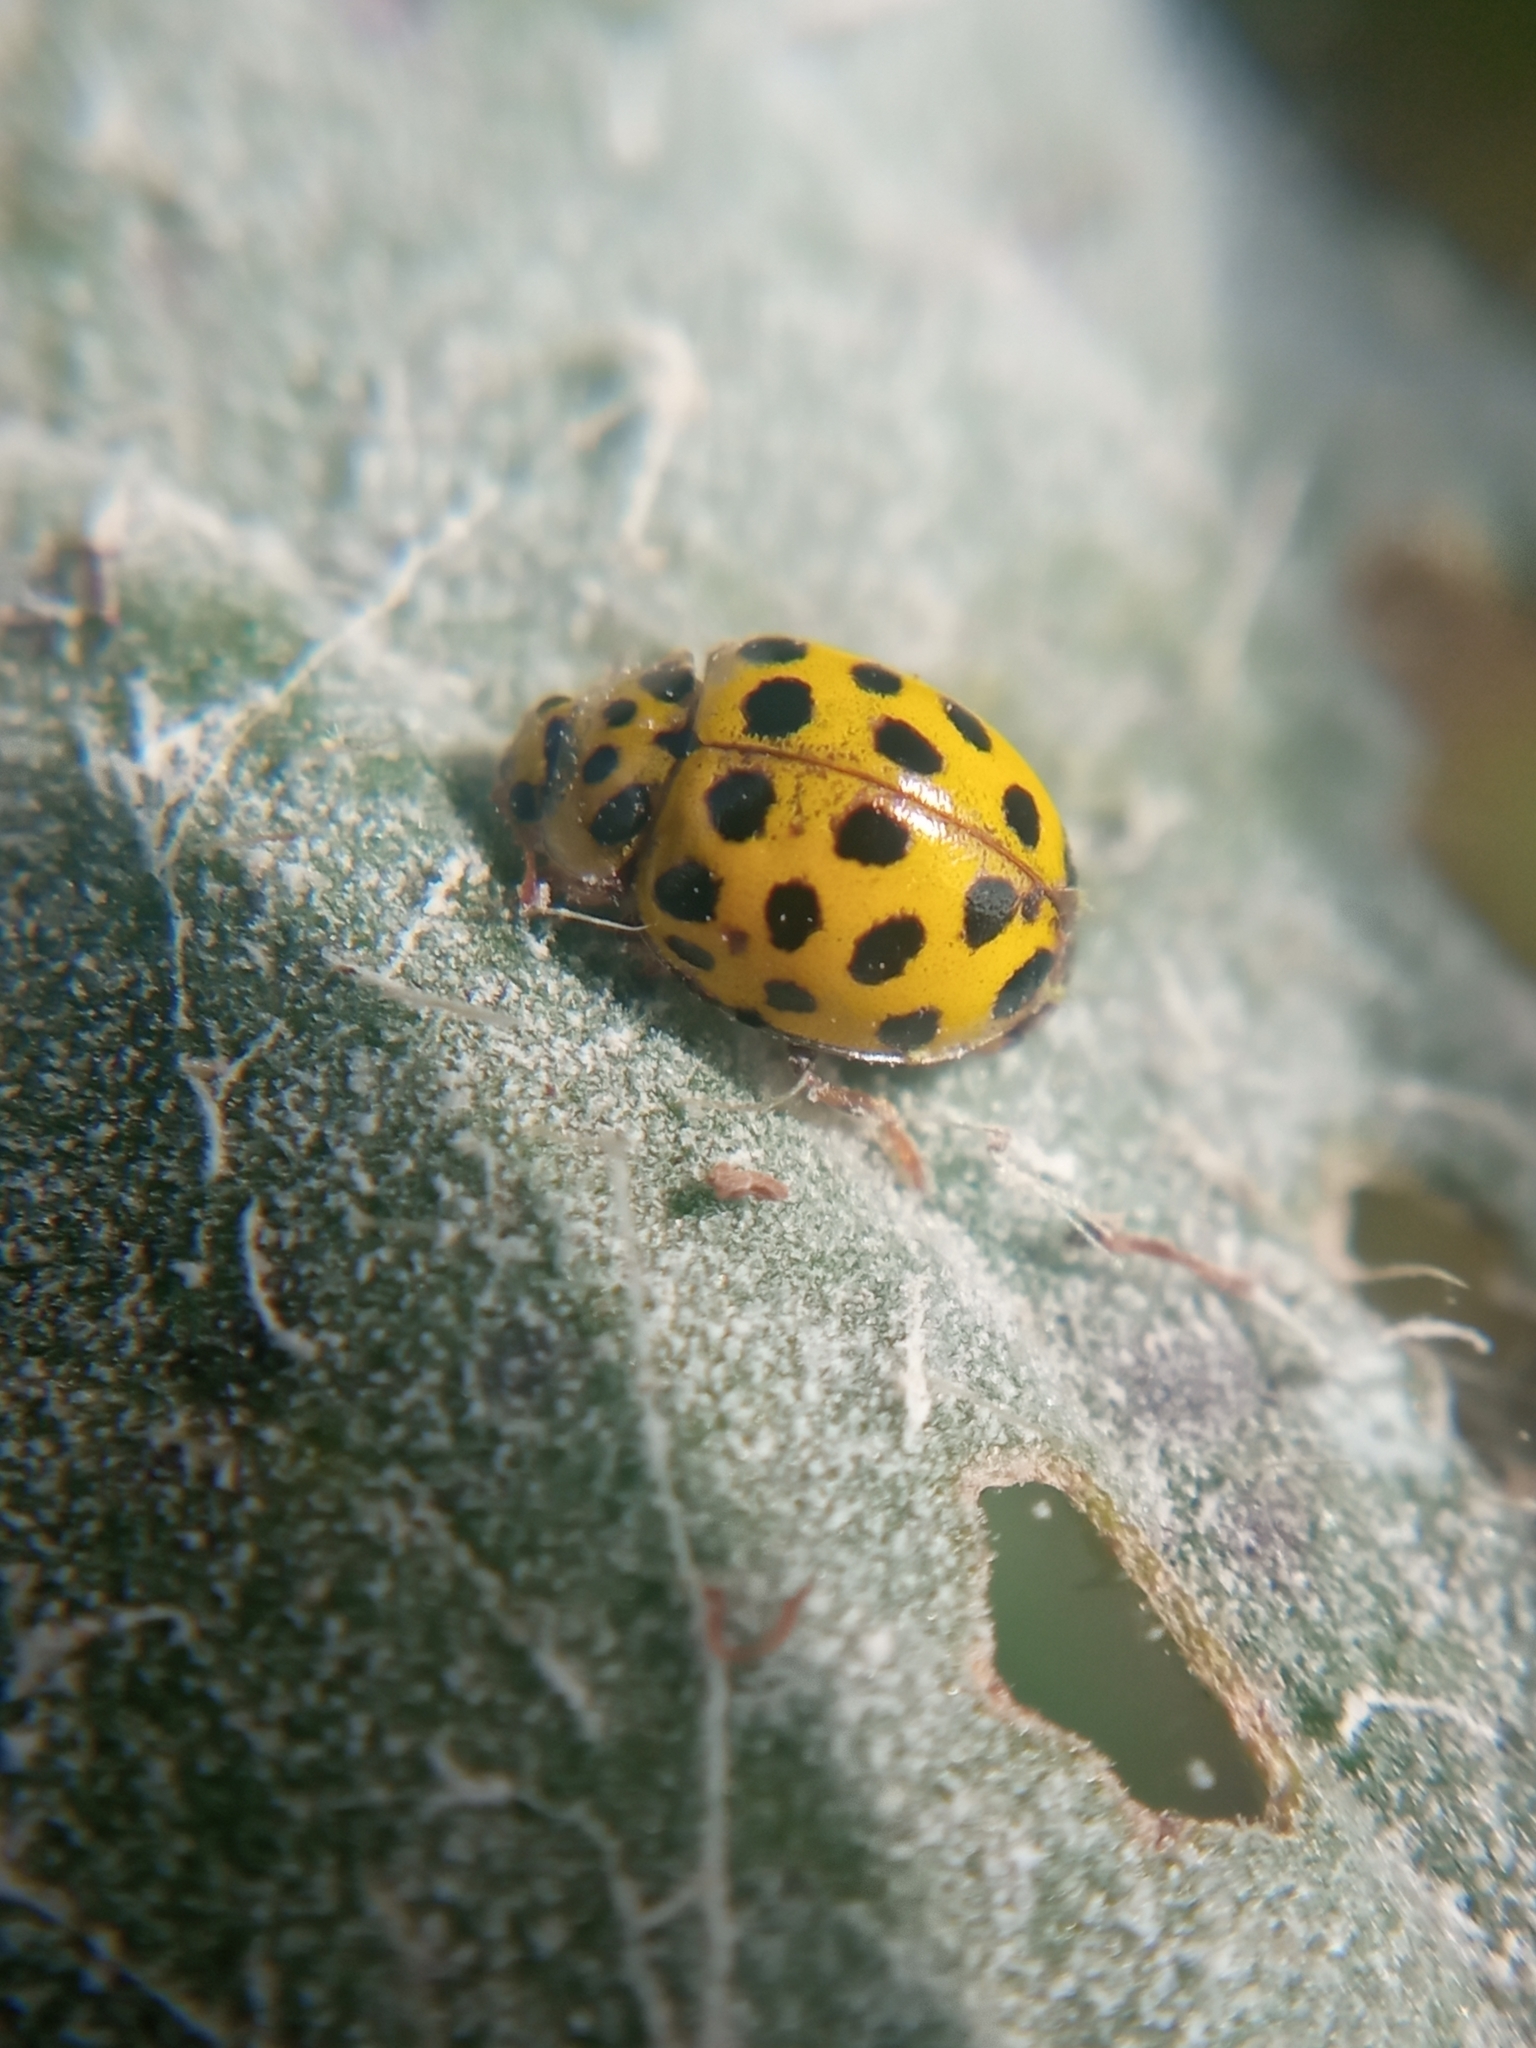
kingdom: Animalia
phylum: Arthropoda
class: Insecta
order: Coleoptera
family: Coccinellidae
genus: Psyllobora
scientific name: Psyllobora vigintiduopunctata
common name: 22-spot ladybird
